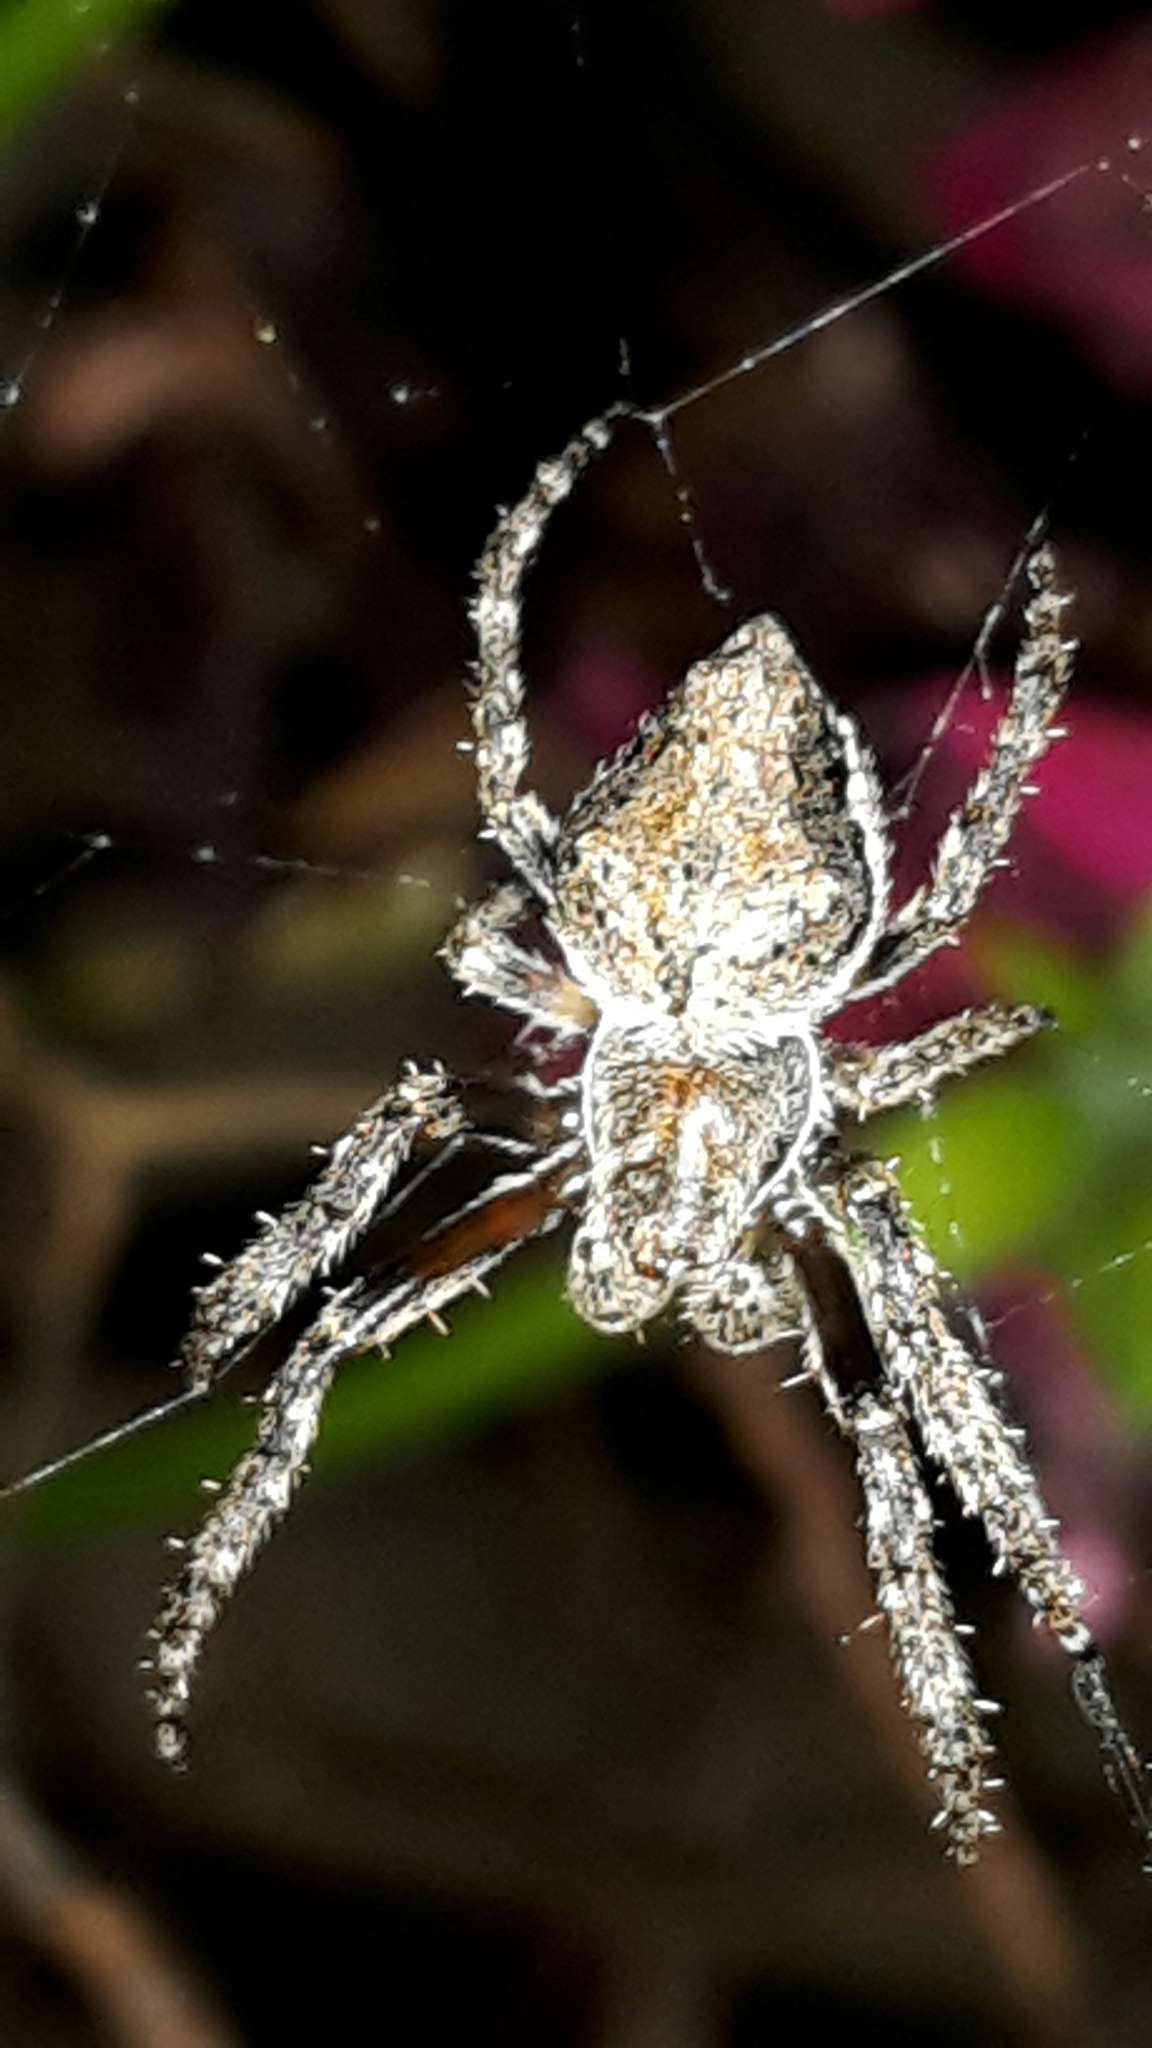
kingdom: Animalia
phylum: Arthropoda
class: Arachnida
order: Araneae
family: Araneidae
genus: Eriophora
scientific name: Eriophora pustulosa
